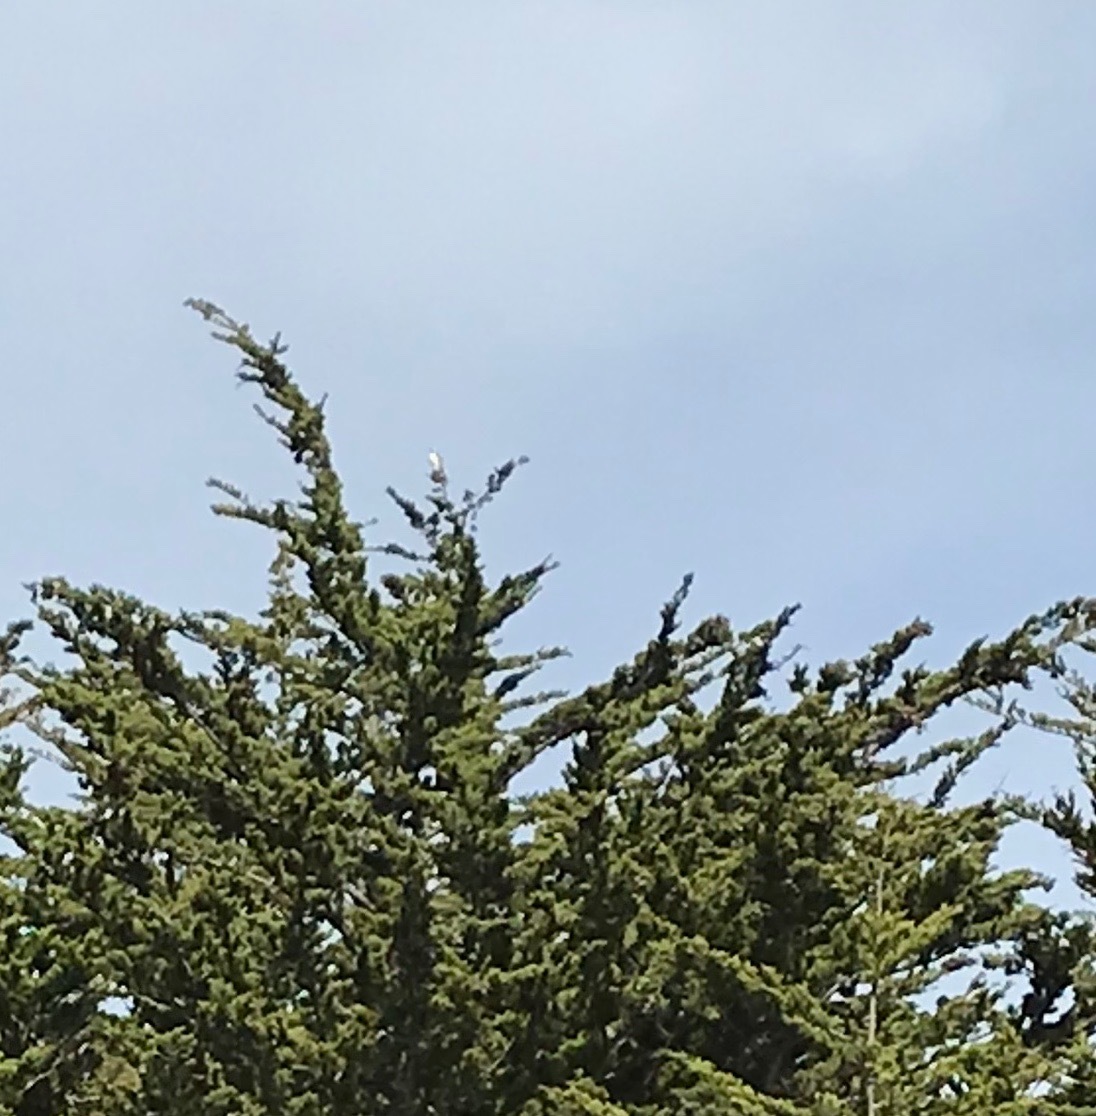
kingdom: Animalia
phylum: Chordata
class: Aves
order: Accipitriformes
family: Accipitridae
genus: Elanus
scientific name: Elanus leucurus
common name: White-tailed kite
